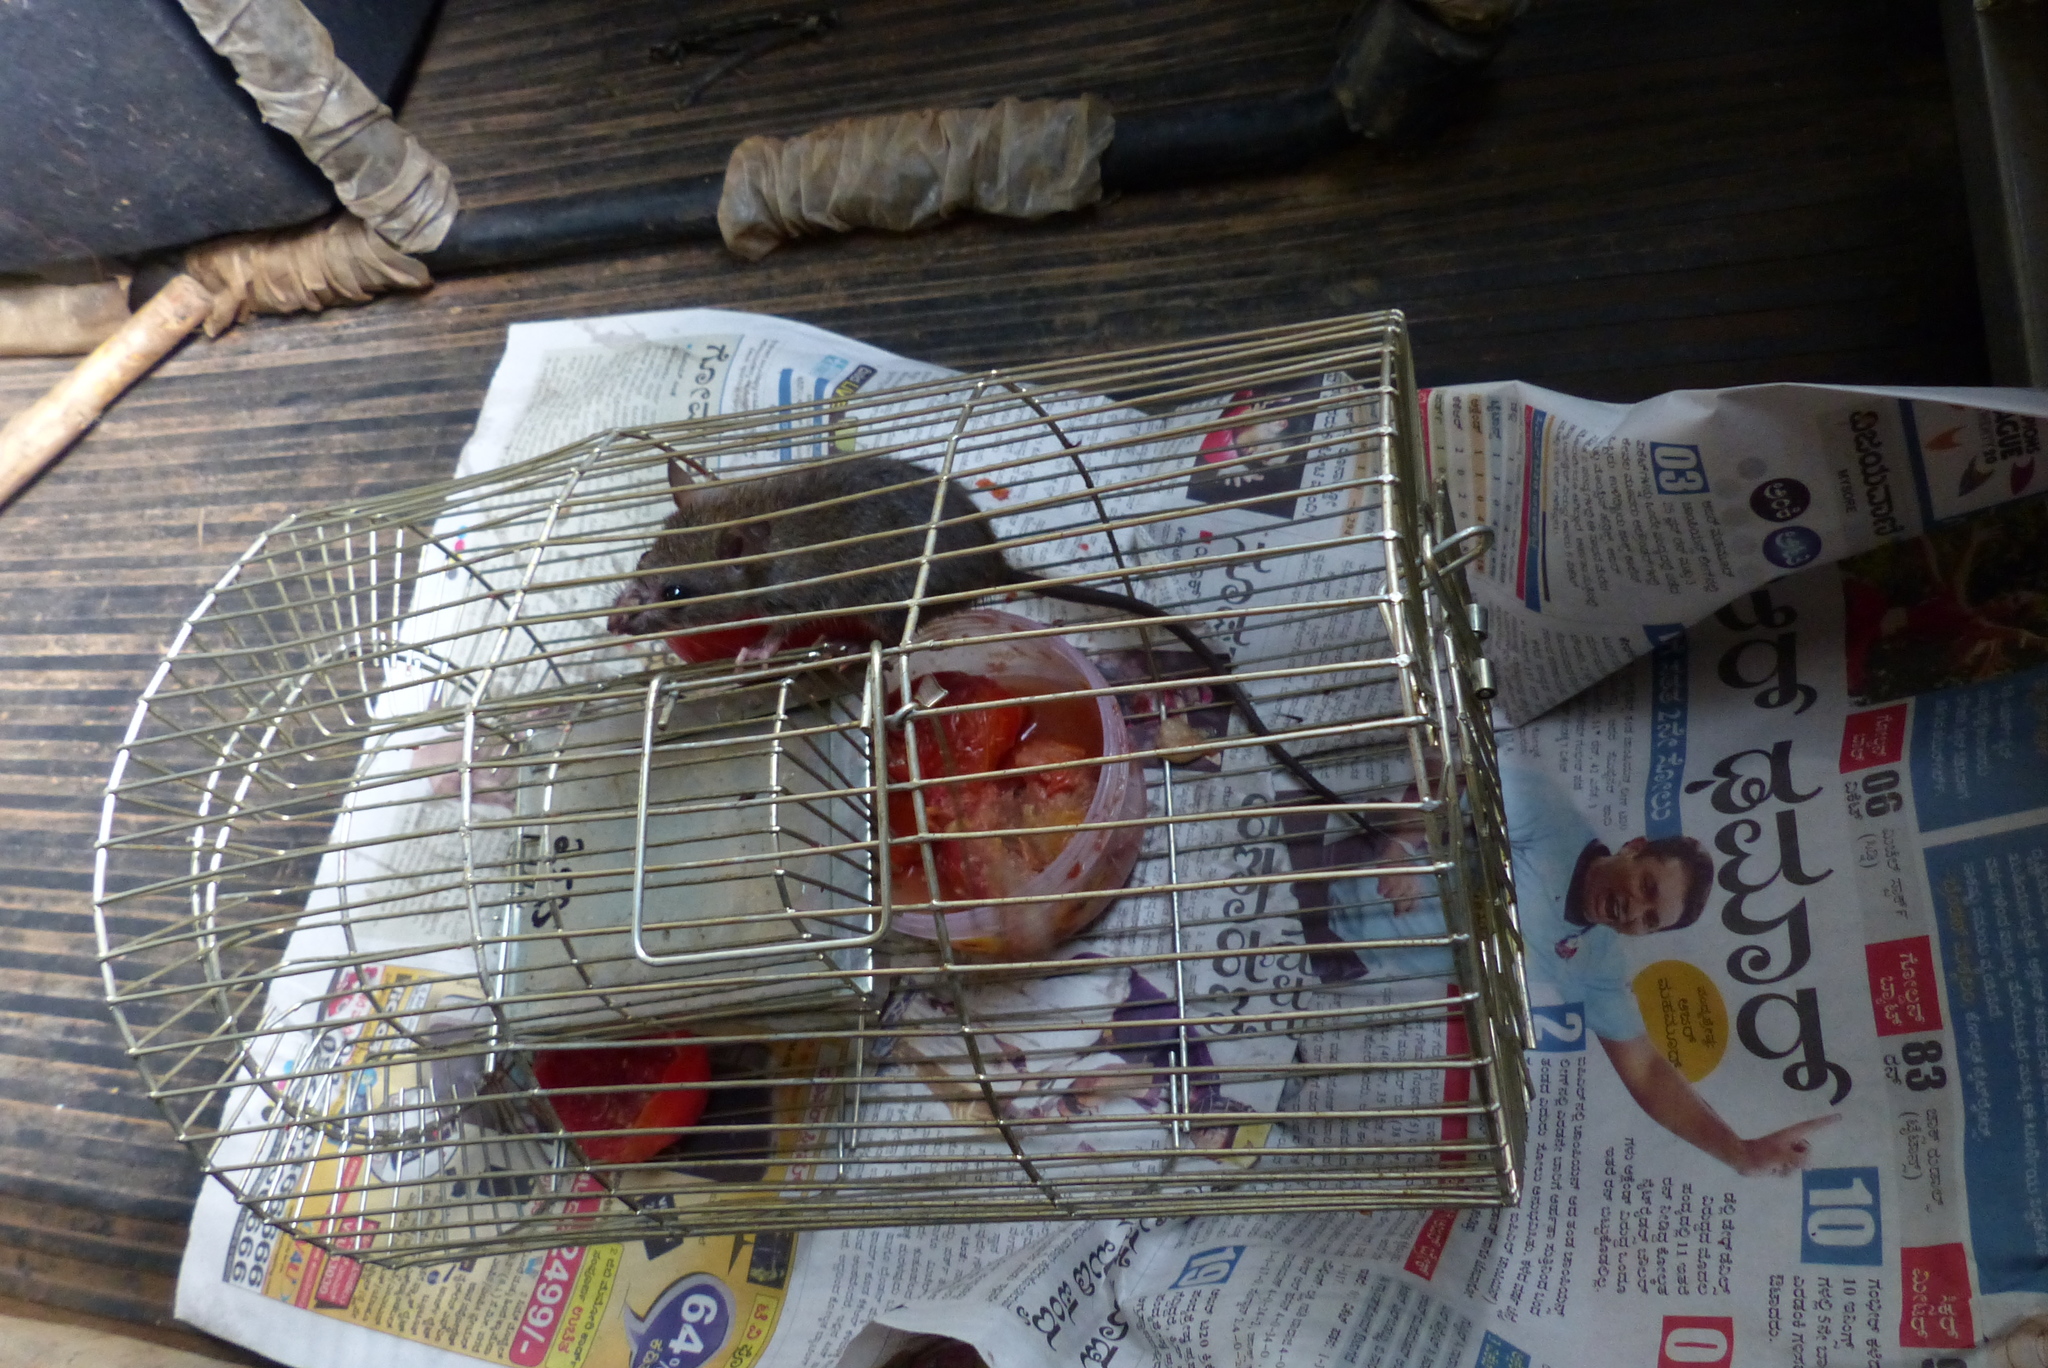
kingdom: Animalia
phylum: Chordata
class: Mammalia
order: Rodentia
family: Muridae
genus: Rattus
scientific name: Rattus rattus
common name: Black rat
